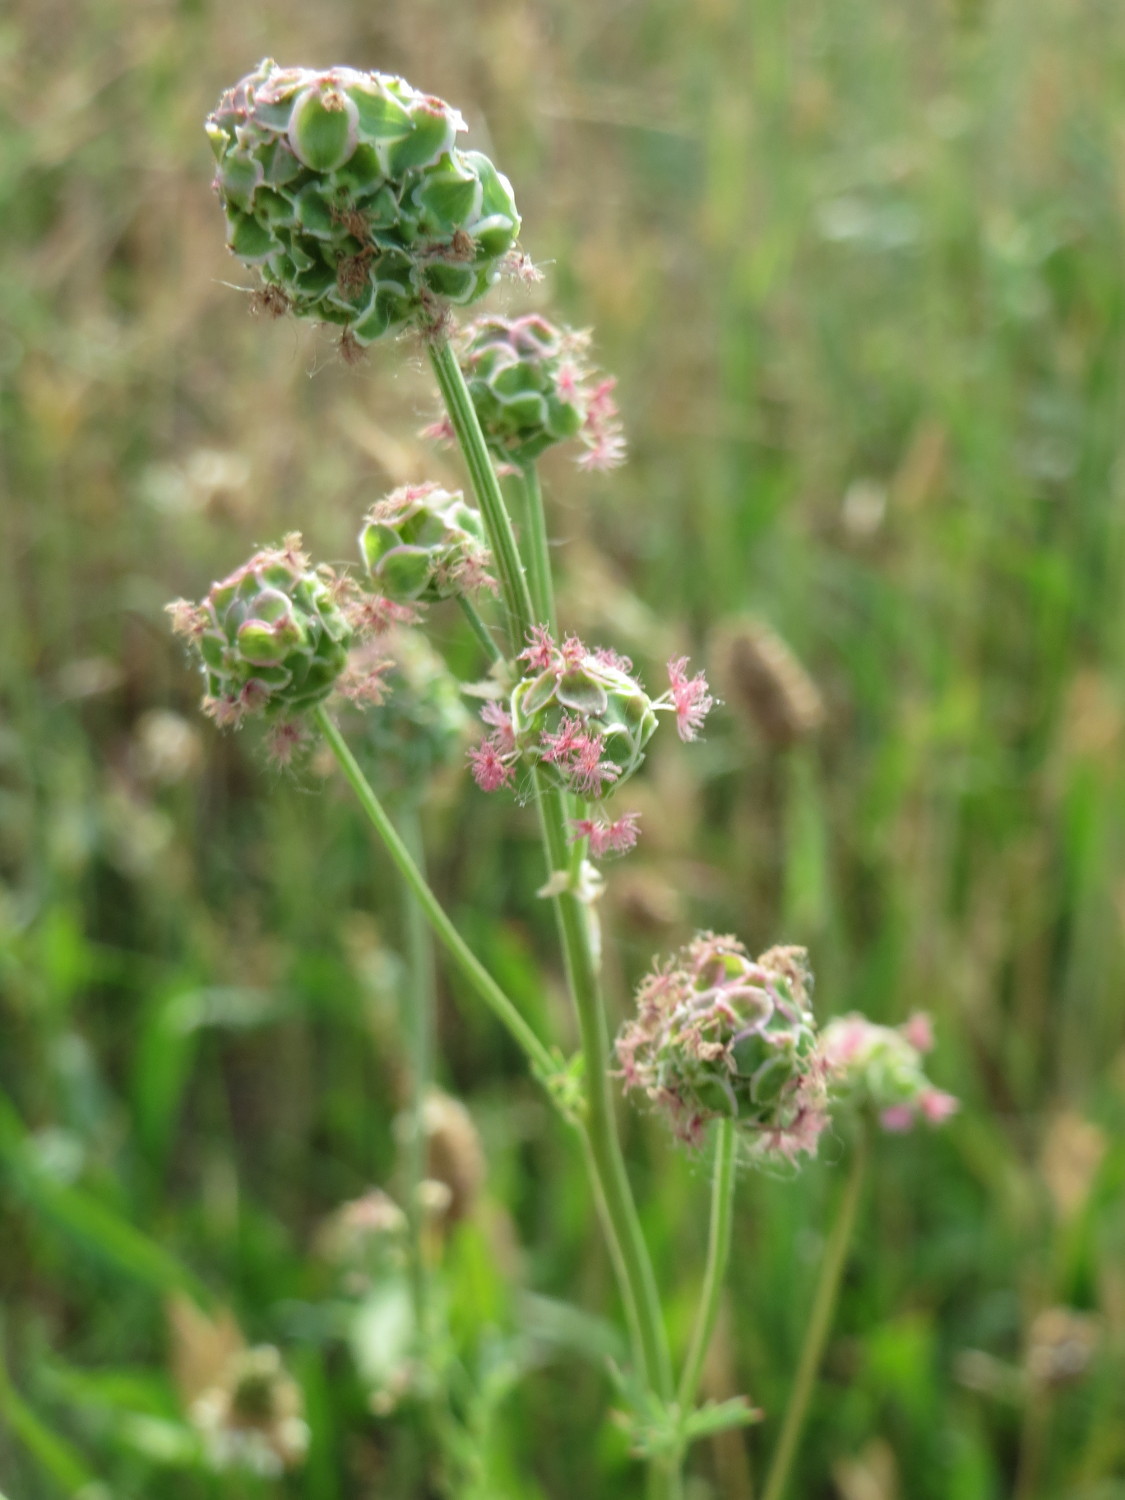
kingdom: Plantae
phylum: Tracheophyta
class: Magnoliopsida
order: Rosales
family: Rosaceae
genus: Poterium
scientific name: Poterium sanguisorba
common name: Salad burnet
